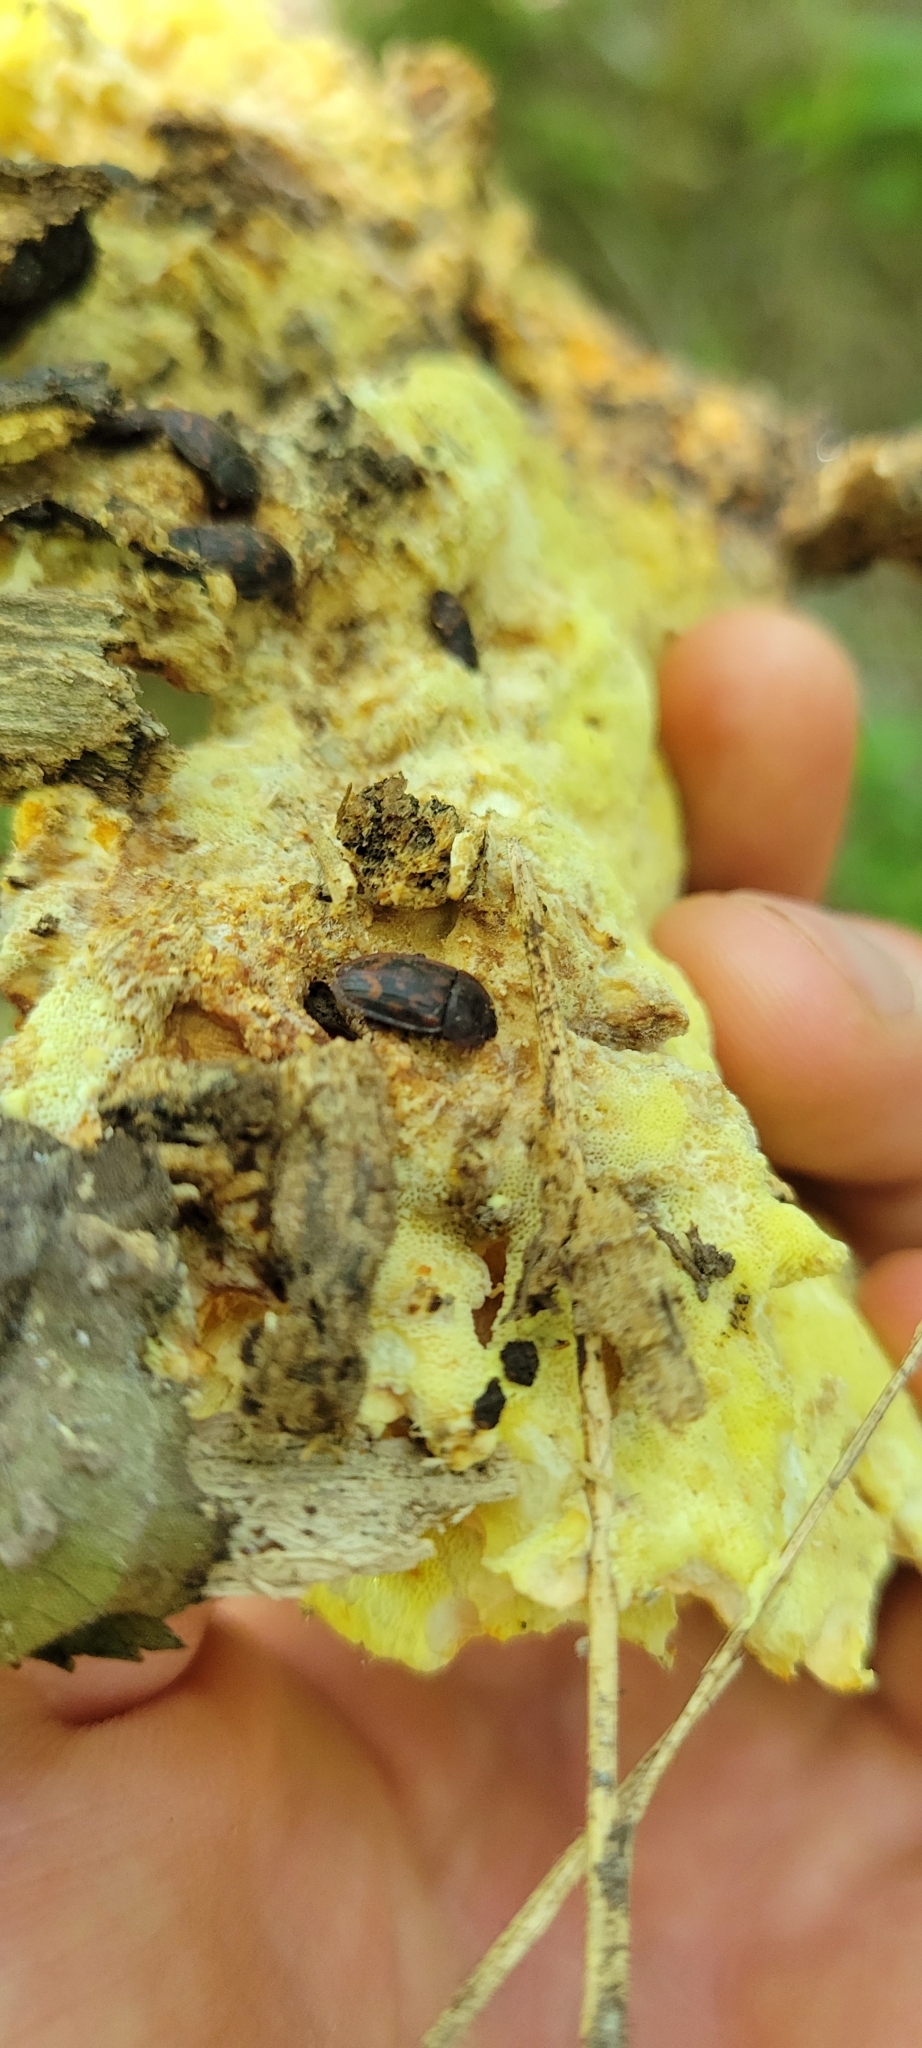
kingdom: Animalia
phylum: Arthropoda
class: Insecta
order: Coleoptera
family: Nitidulidae
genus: Phenolia
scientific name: Phenolia grossa
